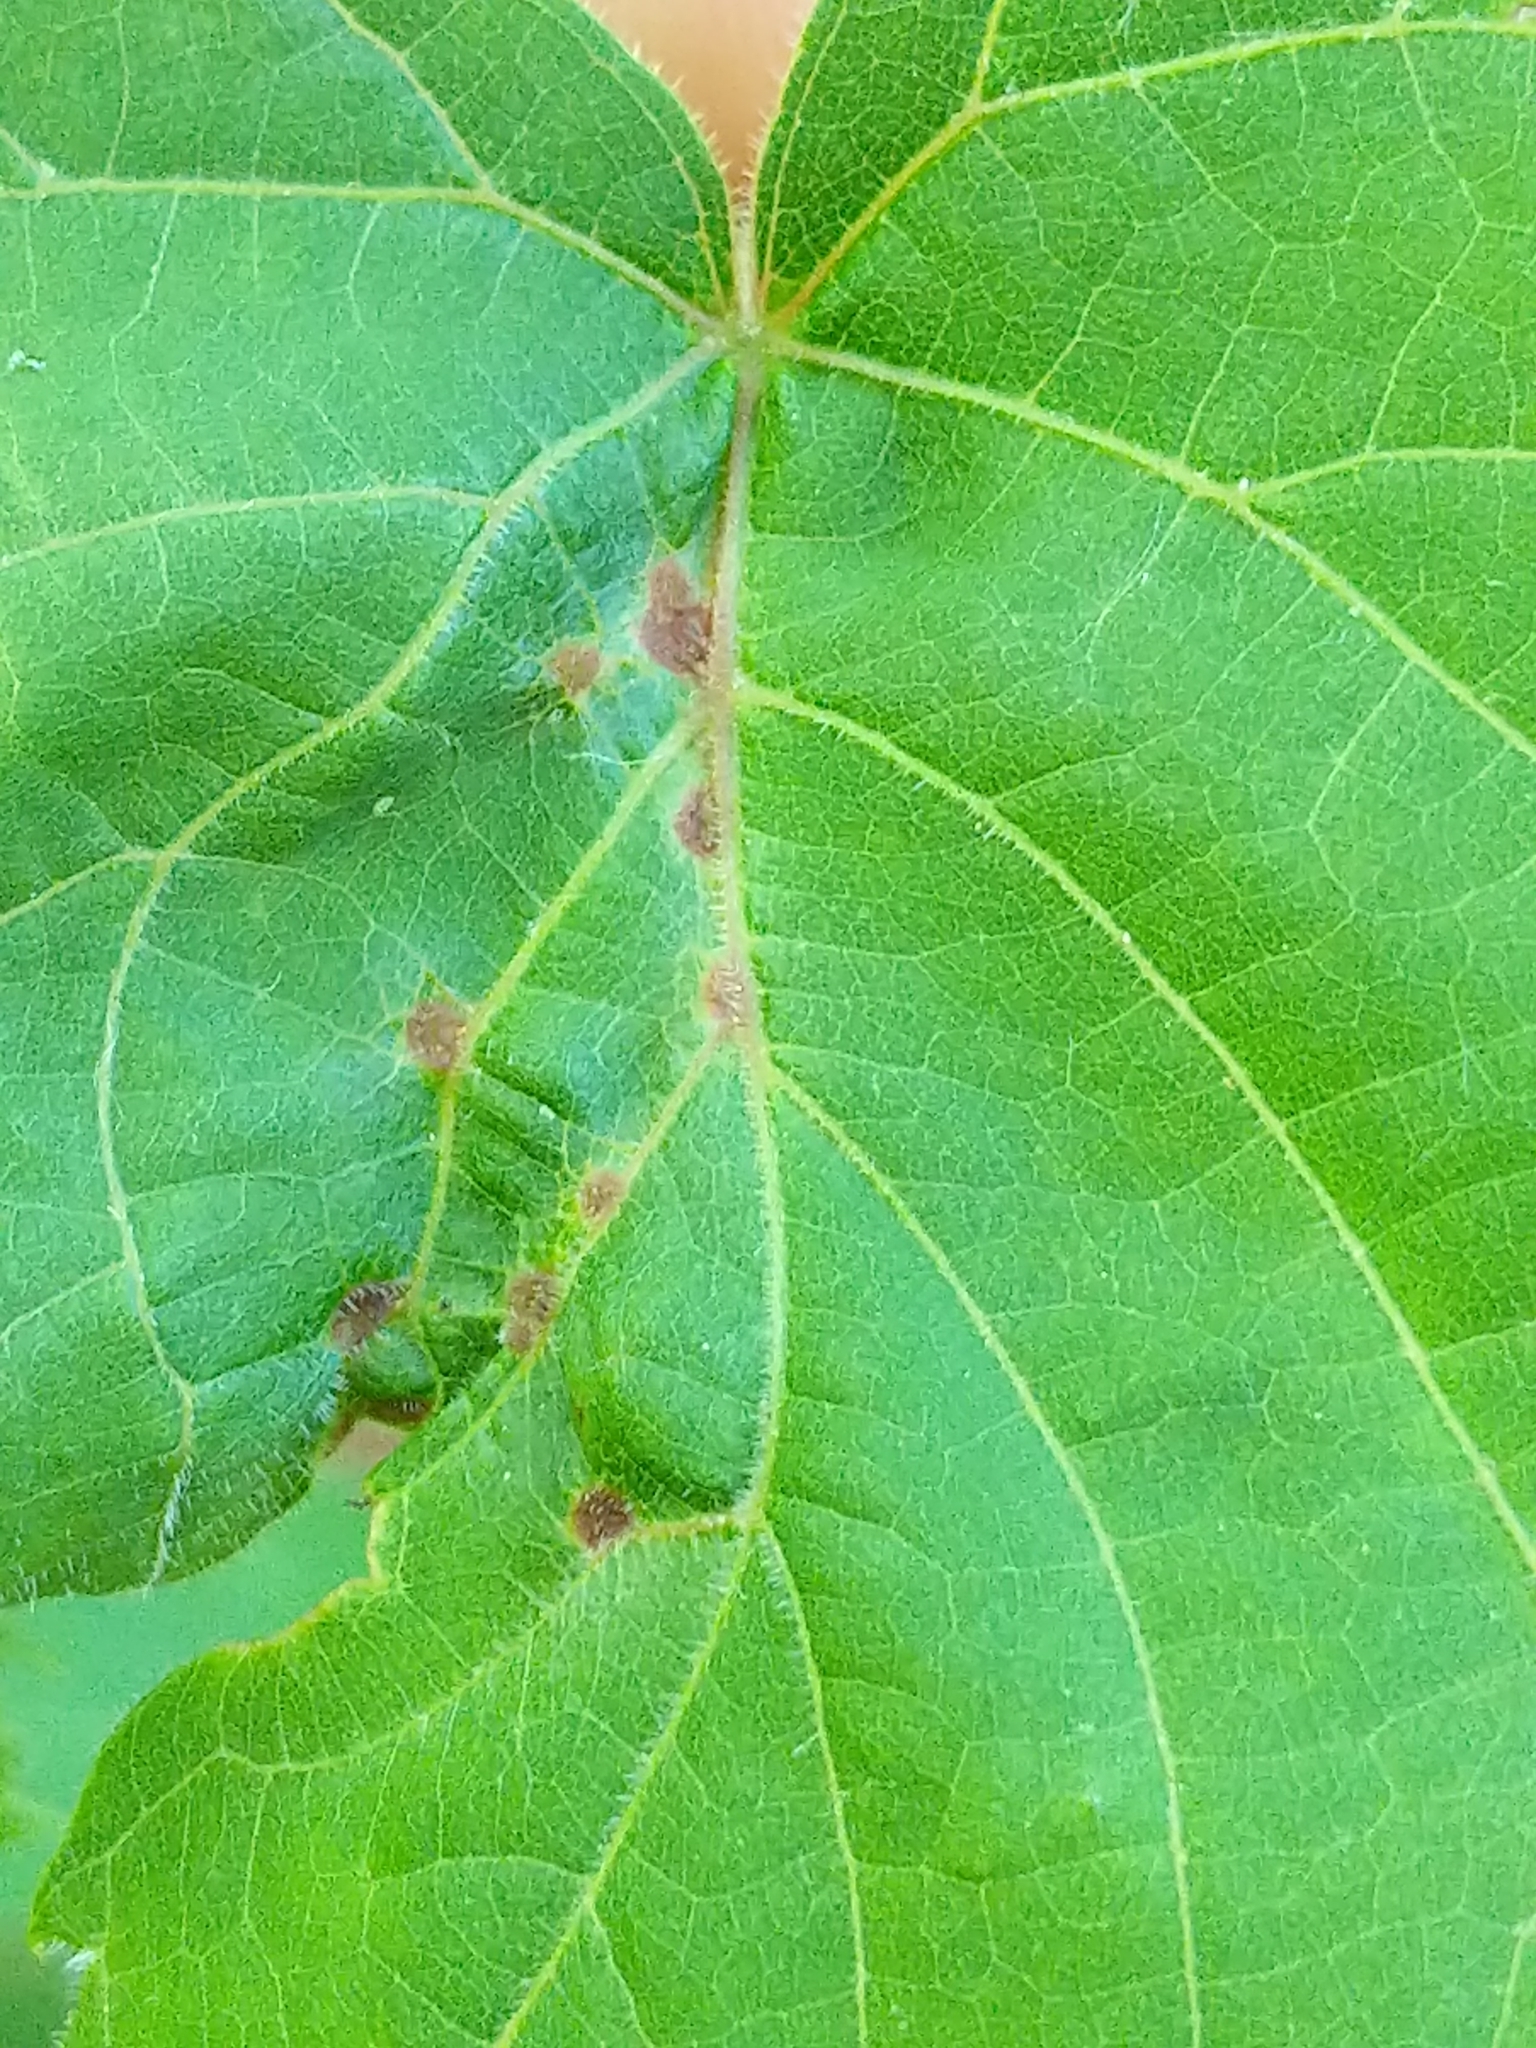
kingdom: Animalia
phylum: Arthropoda
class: Insecta
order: Diptera
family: Cecidomyiidae
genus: Ampelomyia
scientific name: Ampelomyia viticola
